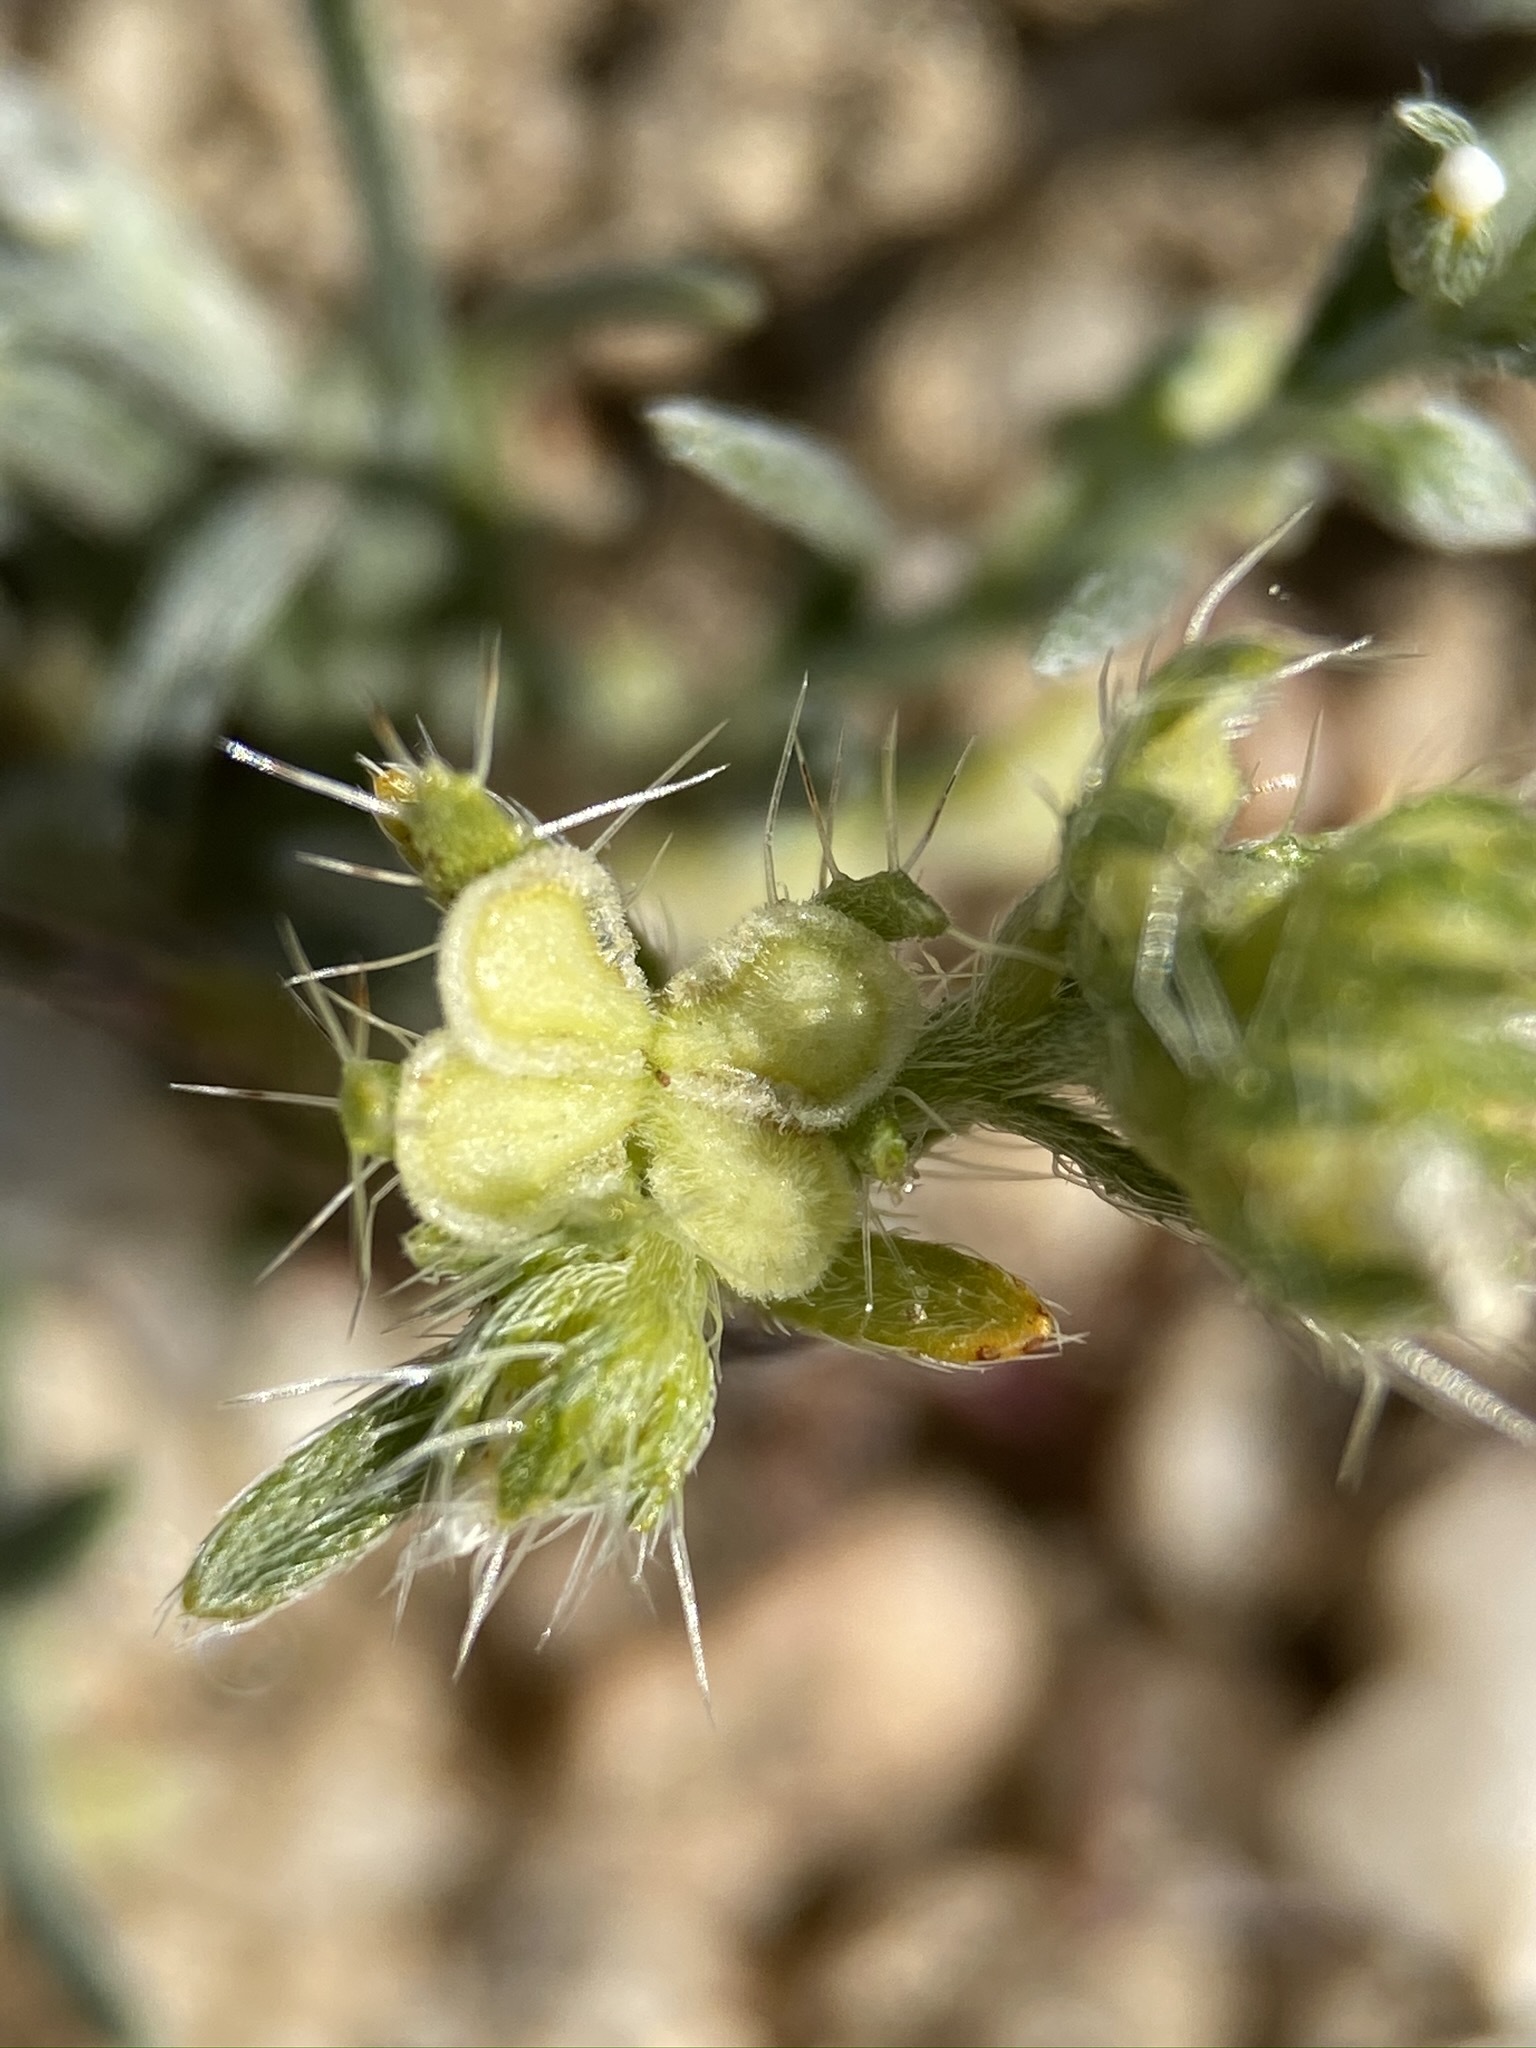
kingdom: Plantae
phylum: Tracheophyta
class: Magnoliopsida
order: Boraginales
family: Boraginaceae
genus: Pectocarya
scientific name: Pectocarya setosa
